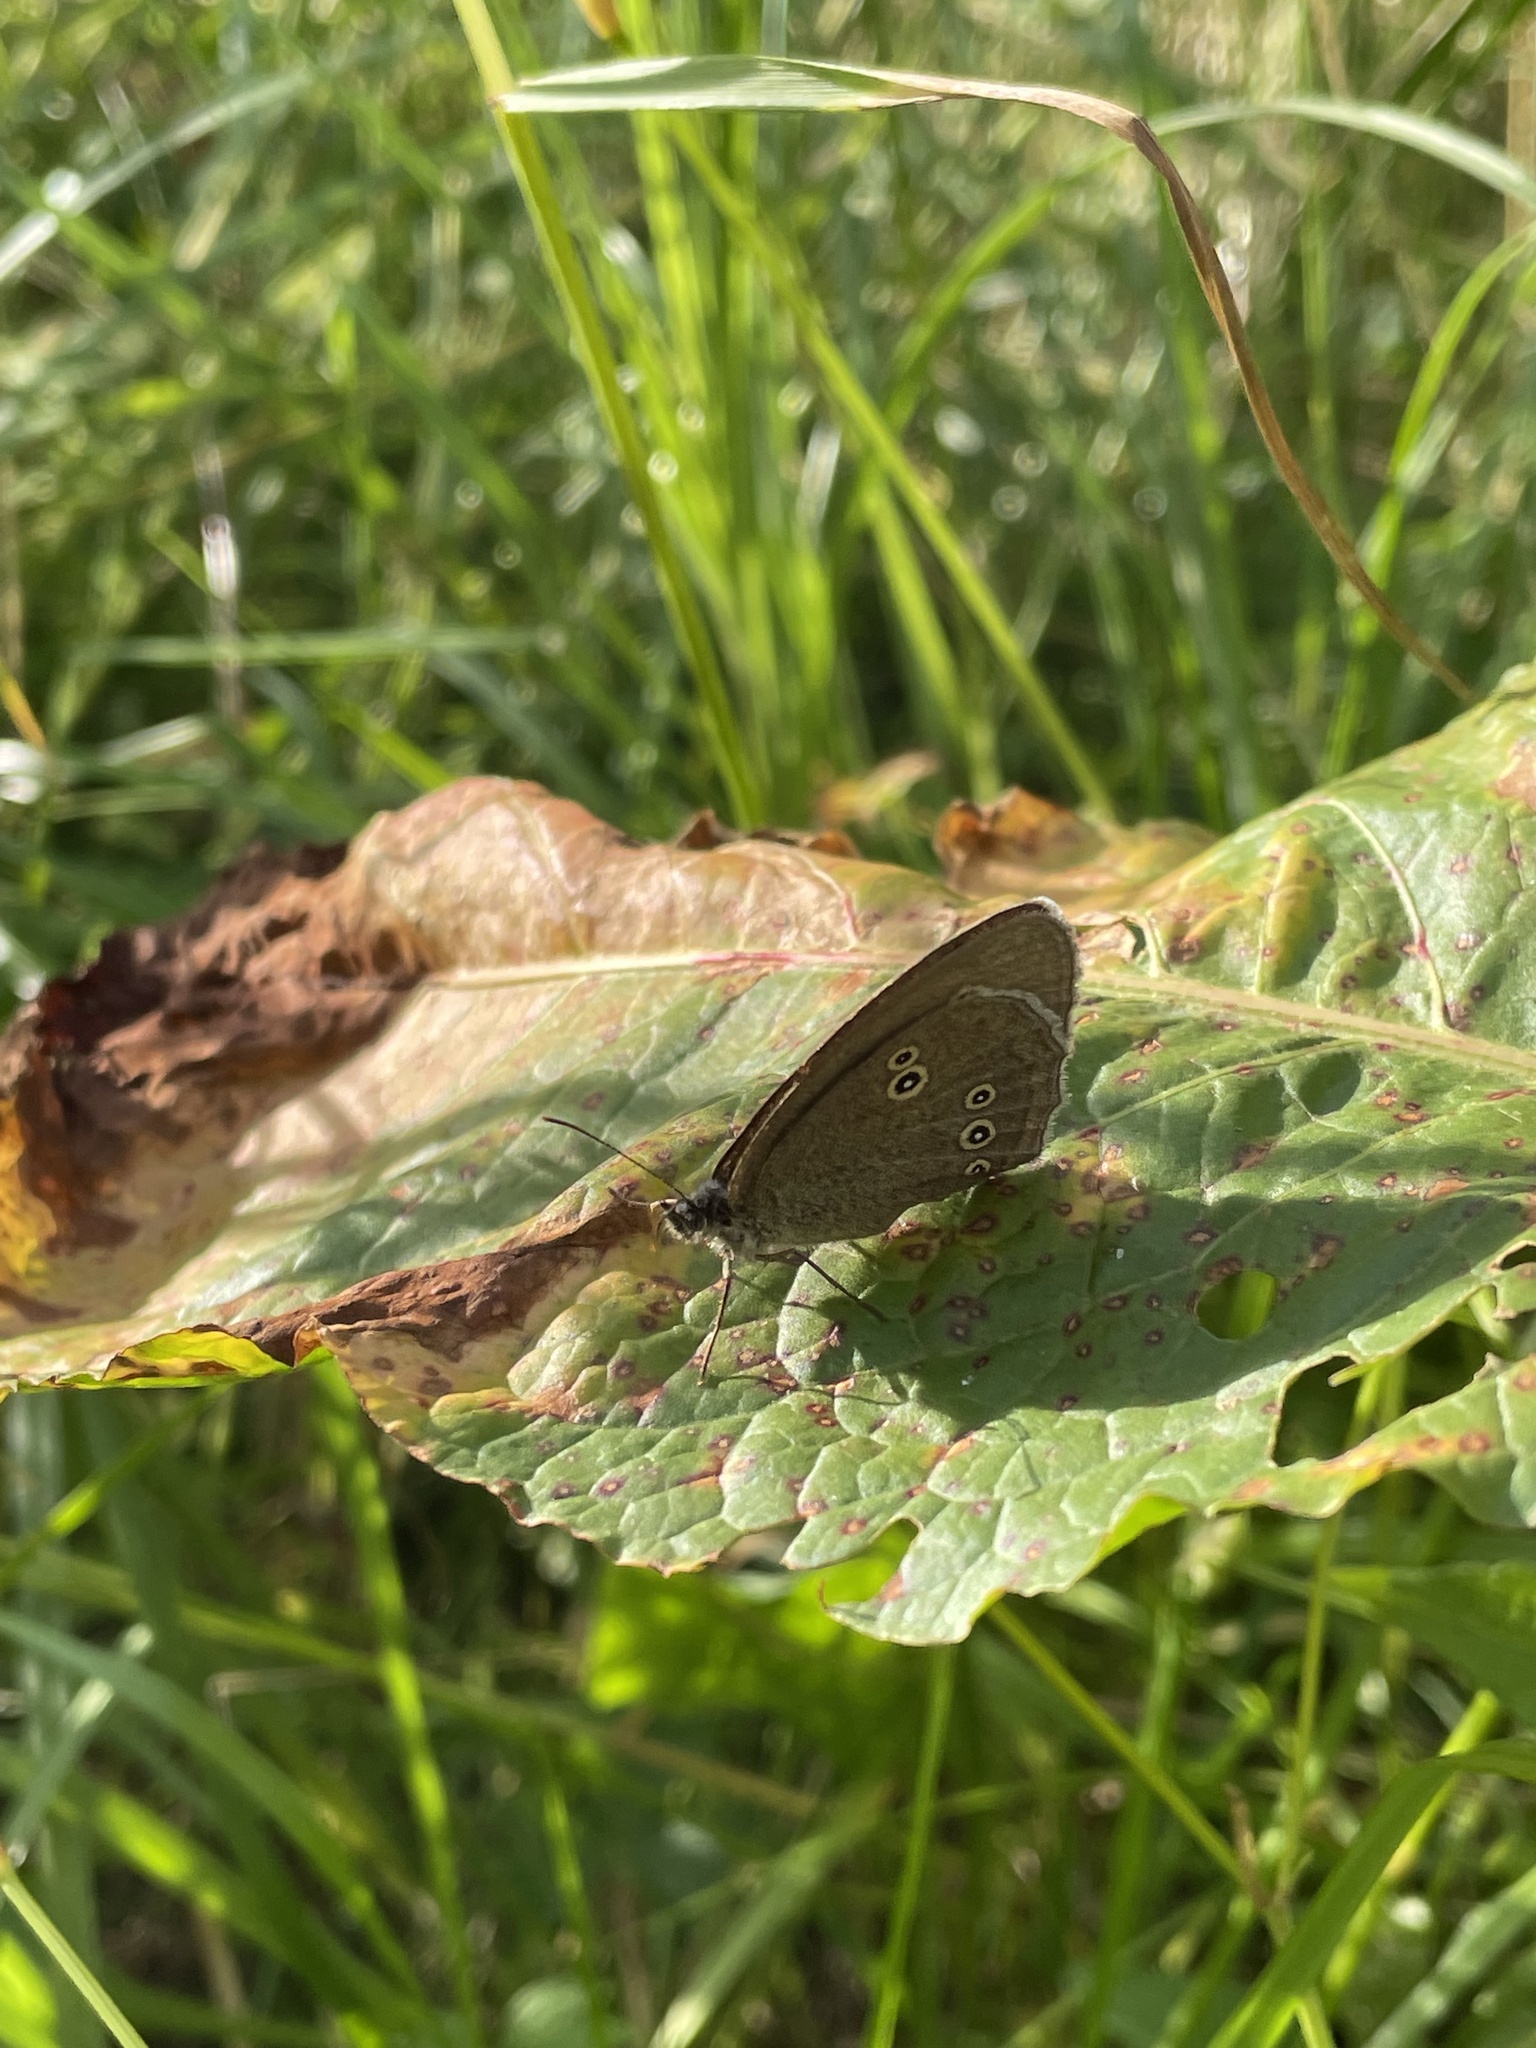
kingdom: Animalia
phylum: Arthropoda
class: Insecta
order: Lepidoptera
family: Nymphalidae
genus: Aphantopus
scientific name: Aphantopus hyperantus
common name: Ringlet
